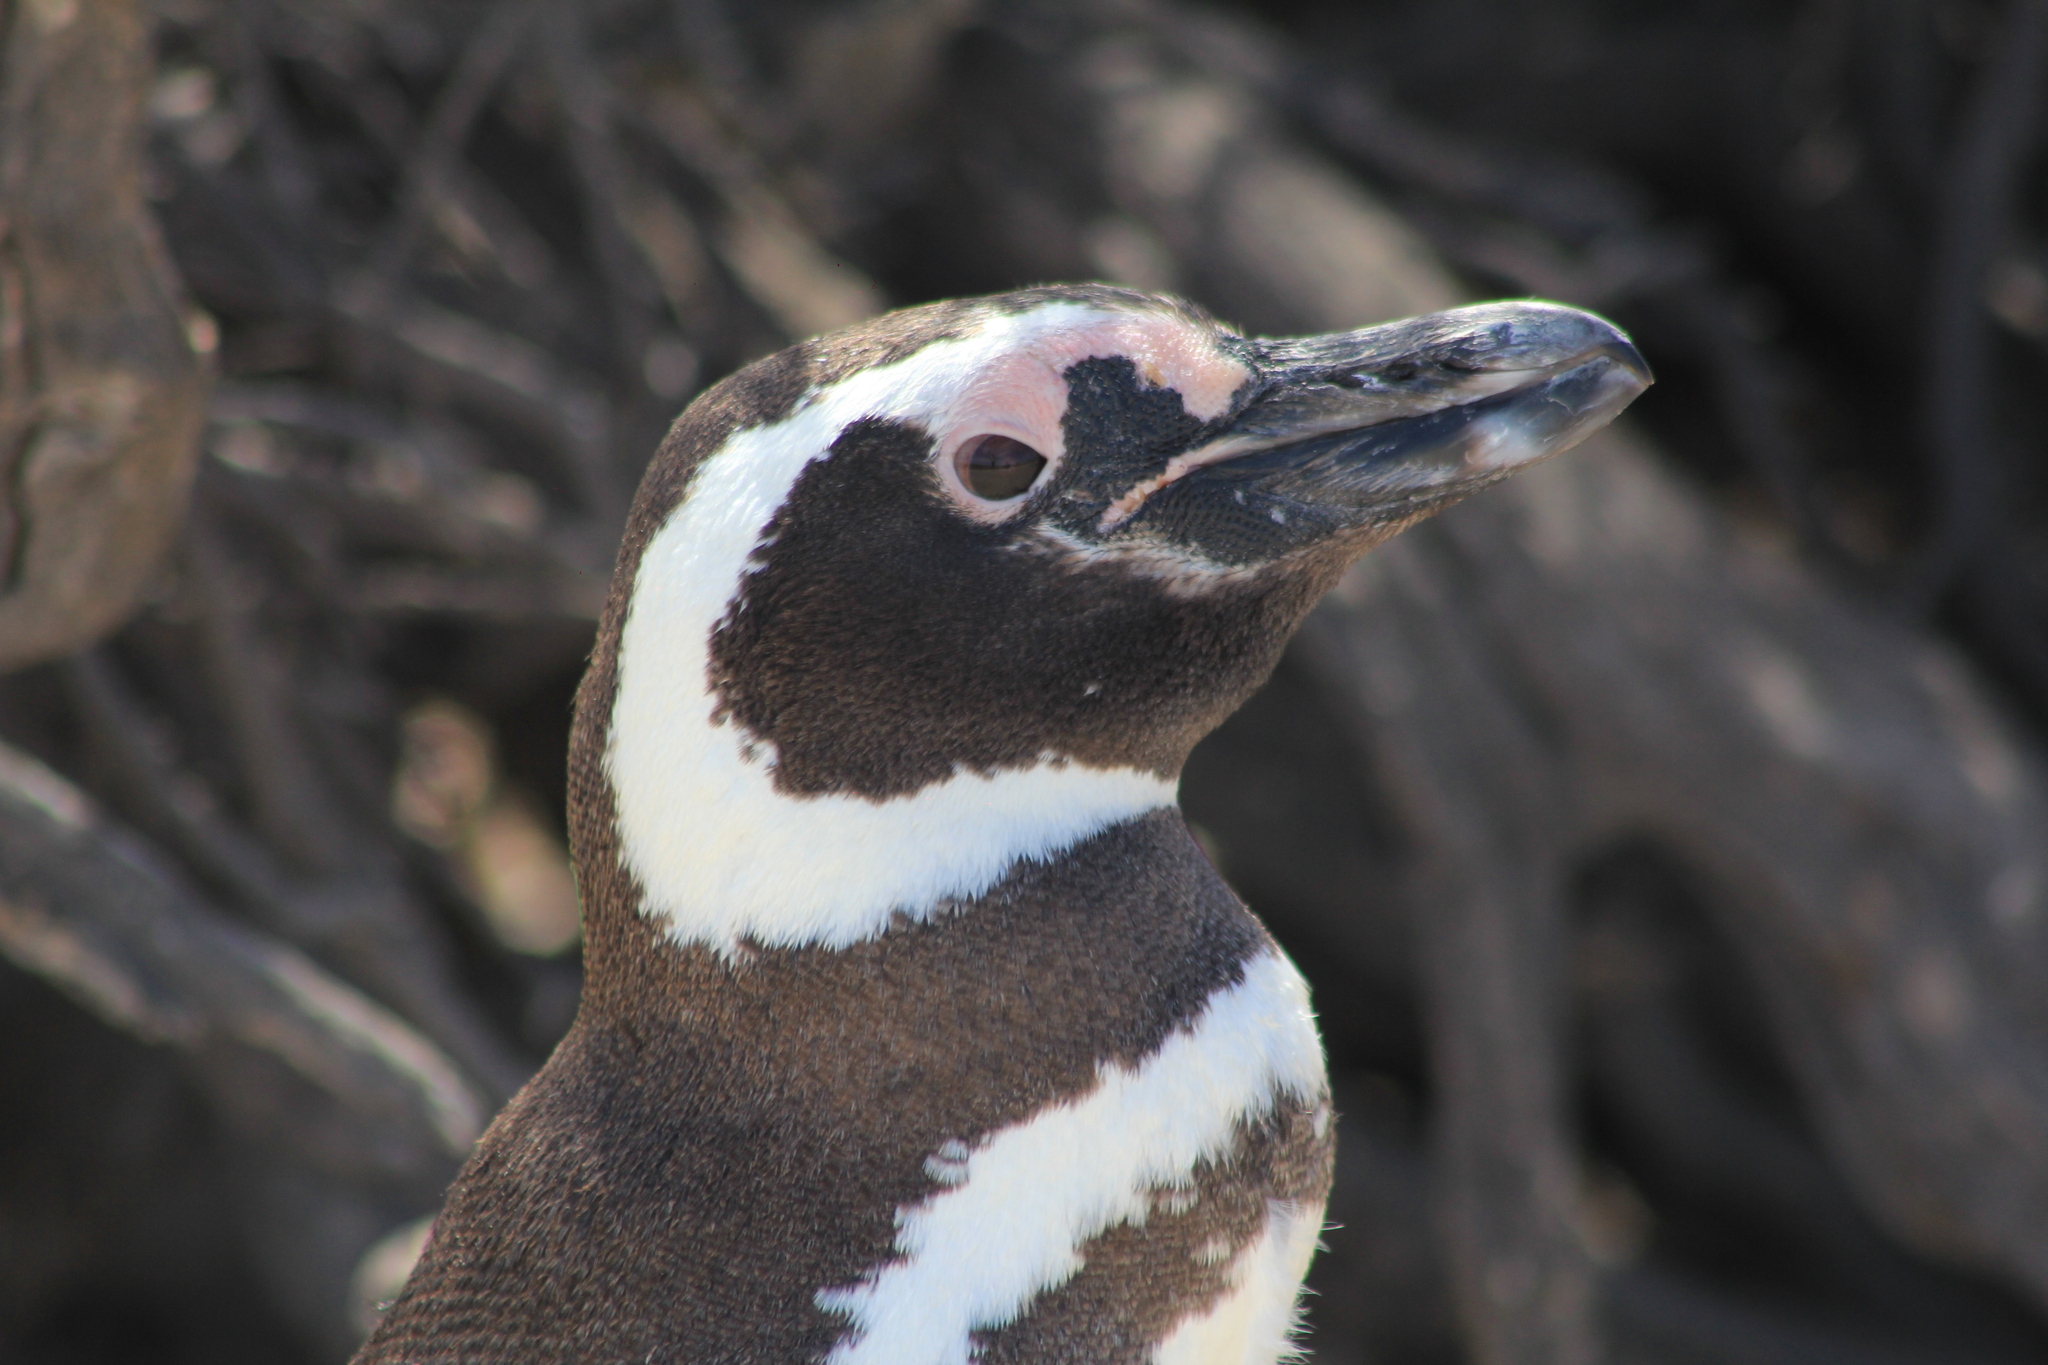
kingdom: Animalia
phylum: Chordata
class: Aves
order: Sphenisciformes
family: Spheniscidae
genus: Spheniscus
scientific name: Spheniscus magellanicus
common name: Magellanic penguin
